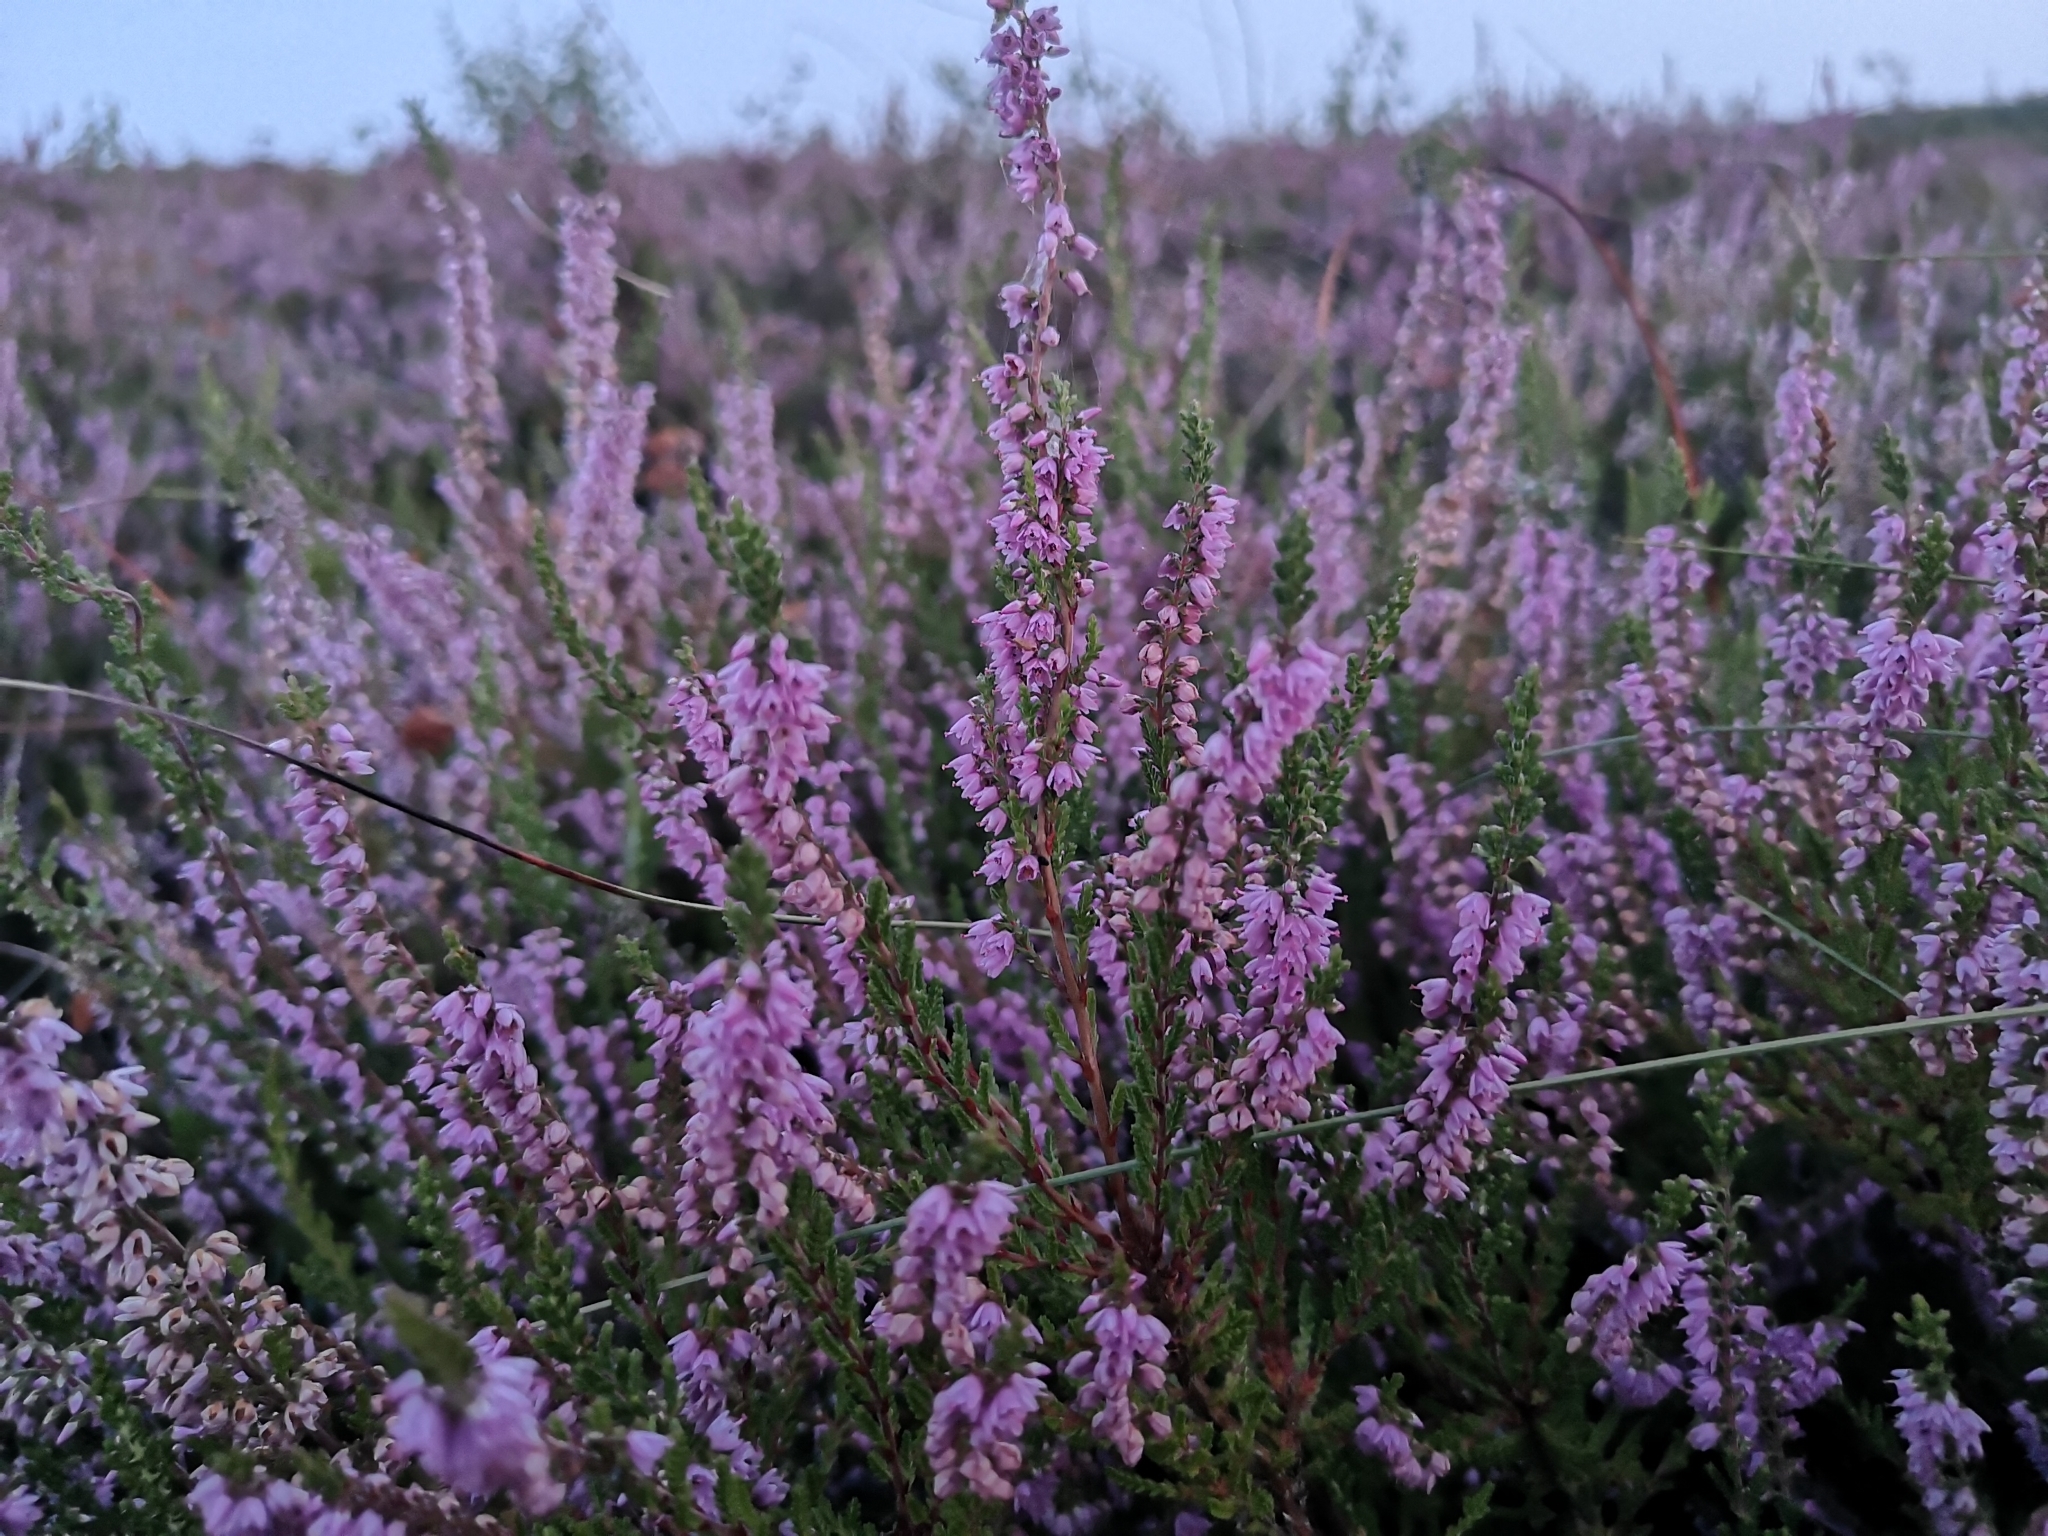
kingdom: Plantae
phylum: Tracheophyta
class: Magnoliopsida
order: Ericales
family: Ericaceae
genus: Calluna
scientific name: Calluna vulgaris
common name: Heather
